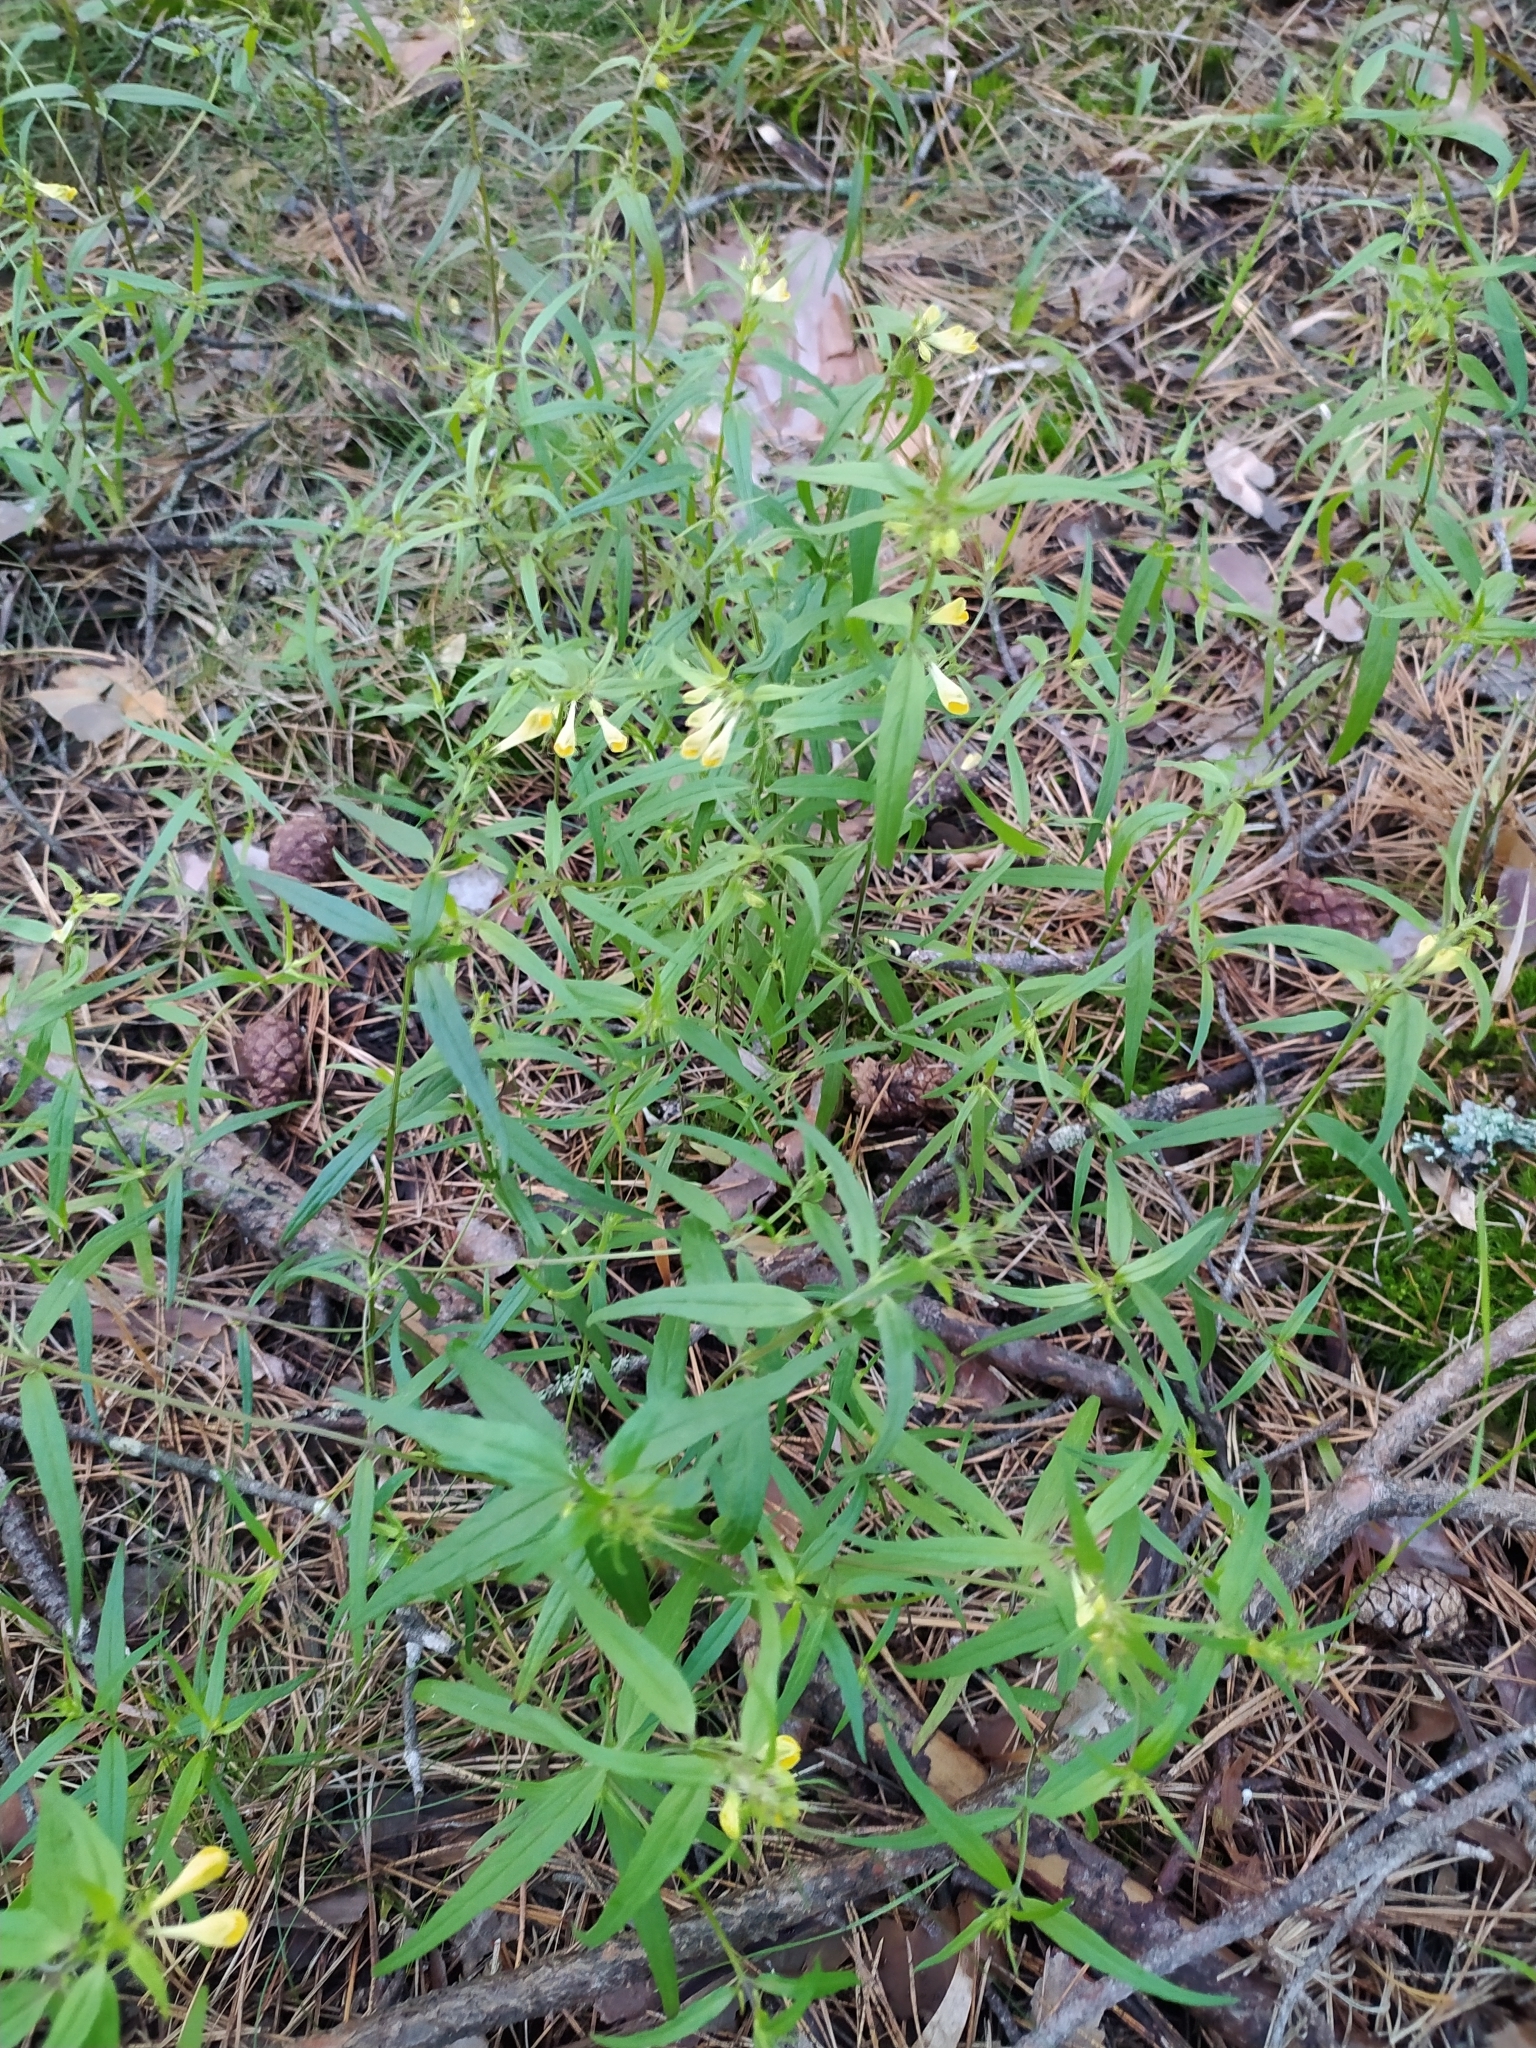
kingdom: Plantae
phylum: Tracheophyta
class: Magnoliopsida
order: Lamiales
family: Orobanchaceae
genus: Melampyrum
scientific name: Melampyrum pratense
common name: Common cow-wheat
